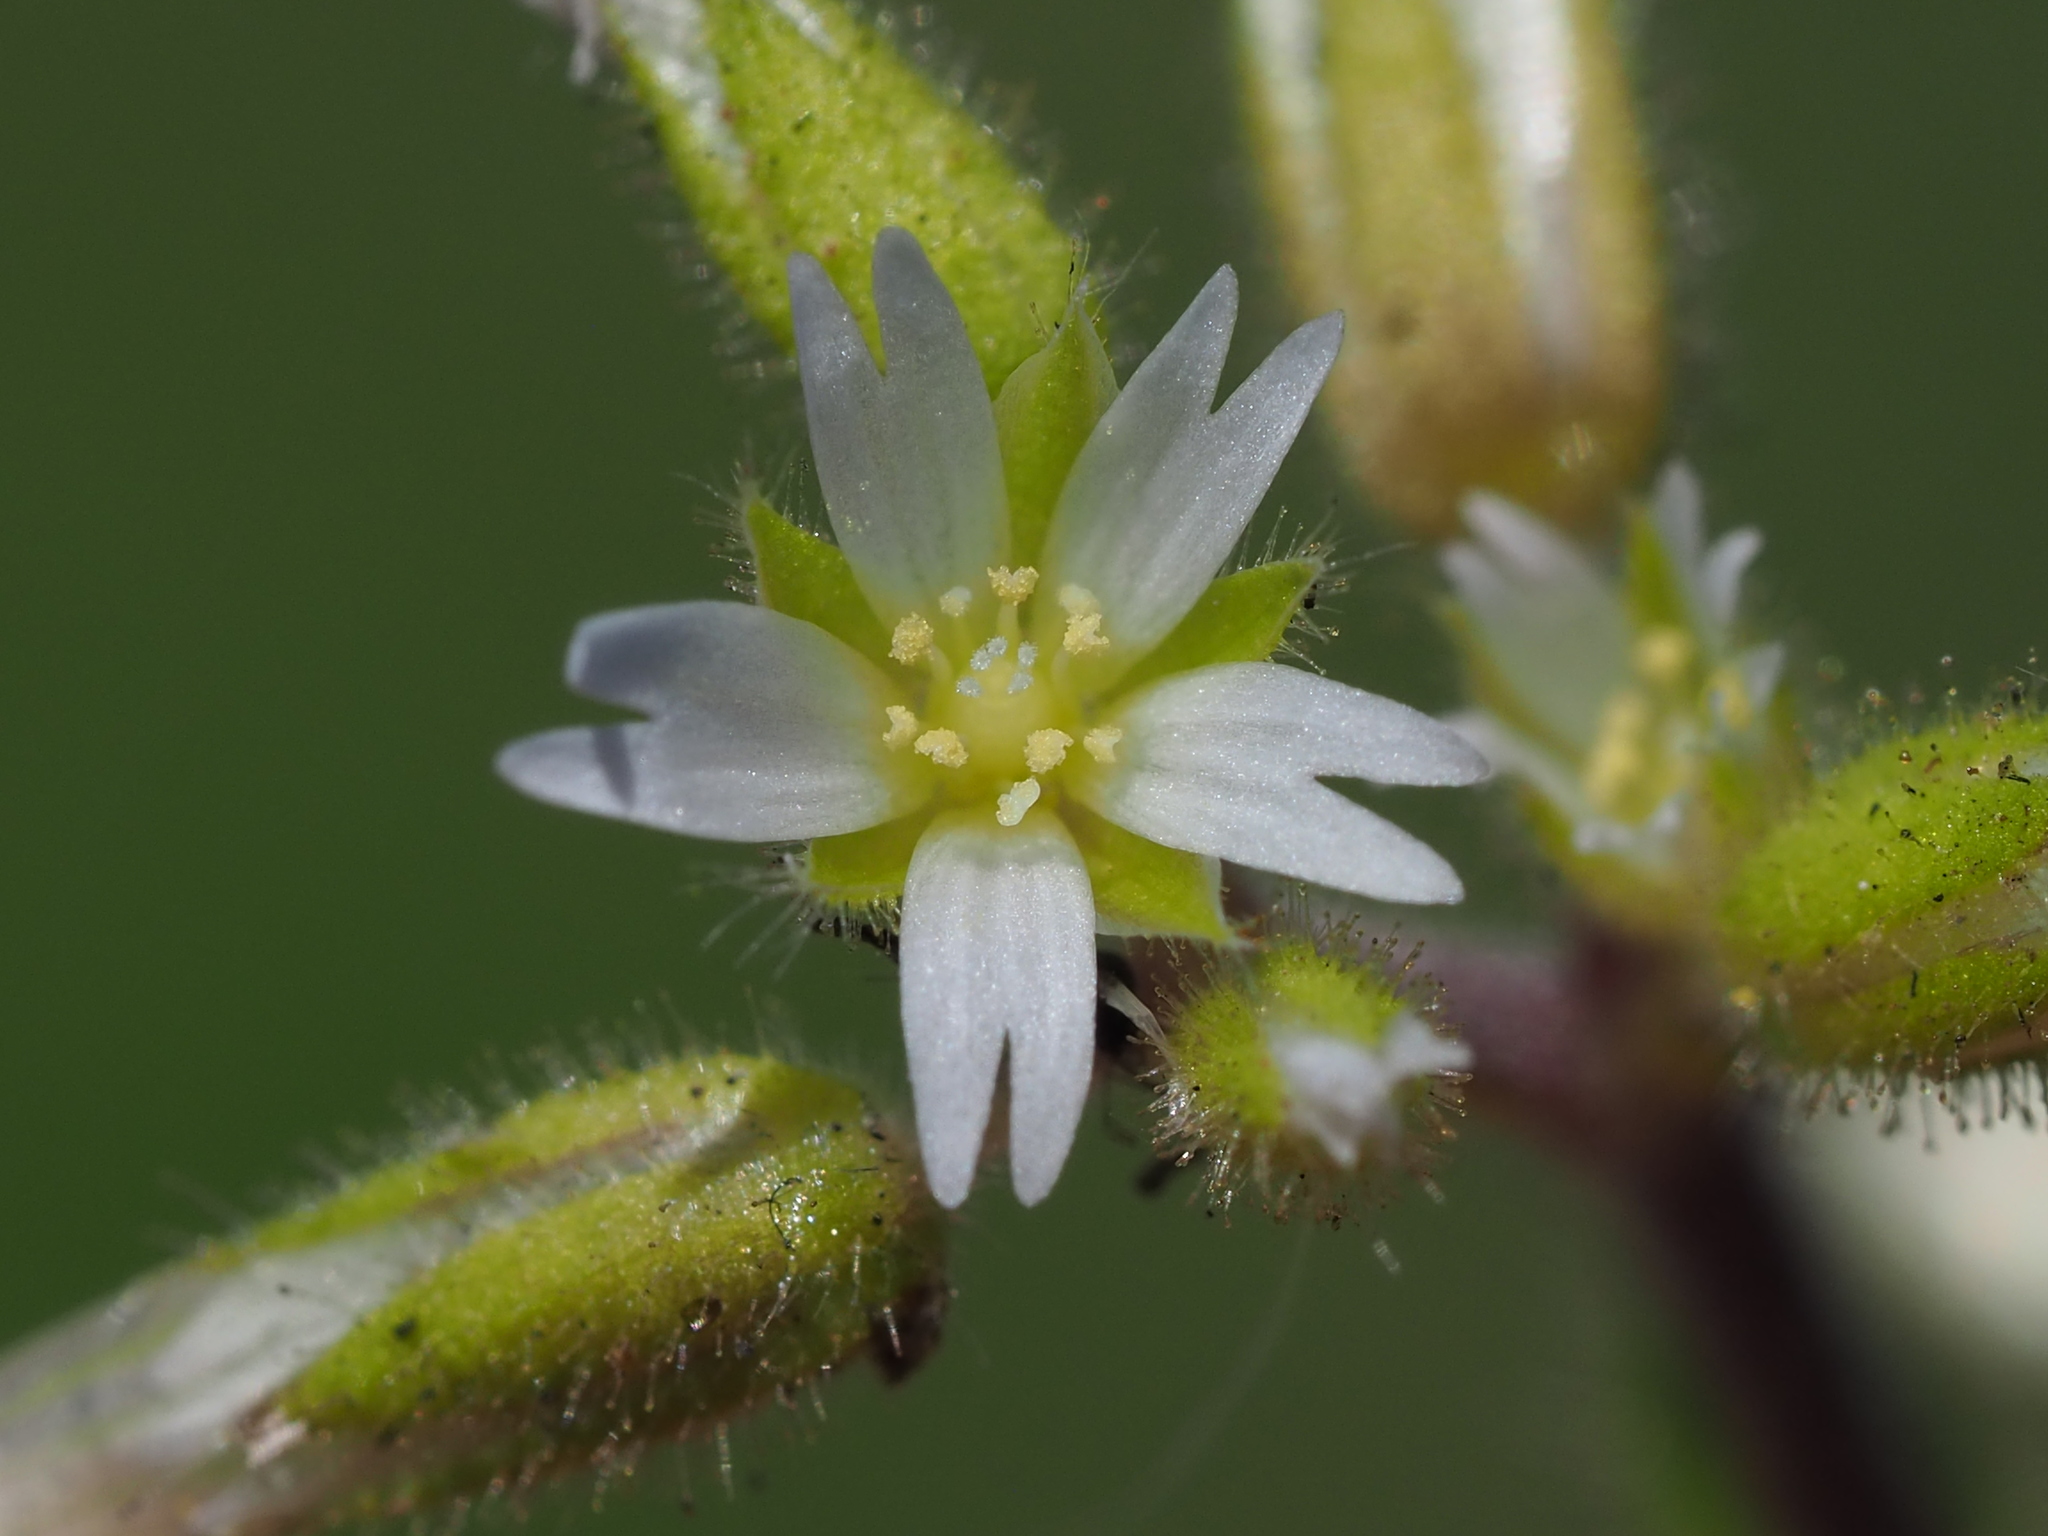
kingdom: Plantae
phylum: Tracheophyta
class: Magnoliopsida
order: Caryophyllales
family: Caryophyllaceae
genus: Cerastium
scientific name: Cerastium glomeratum
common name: Sticky chickweed
